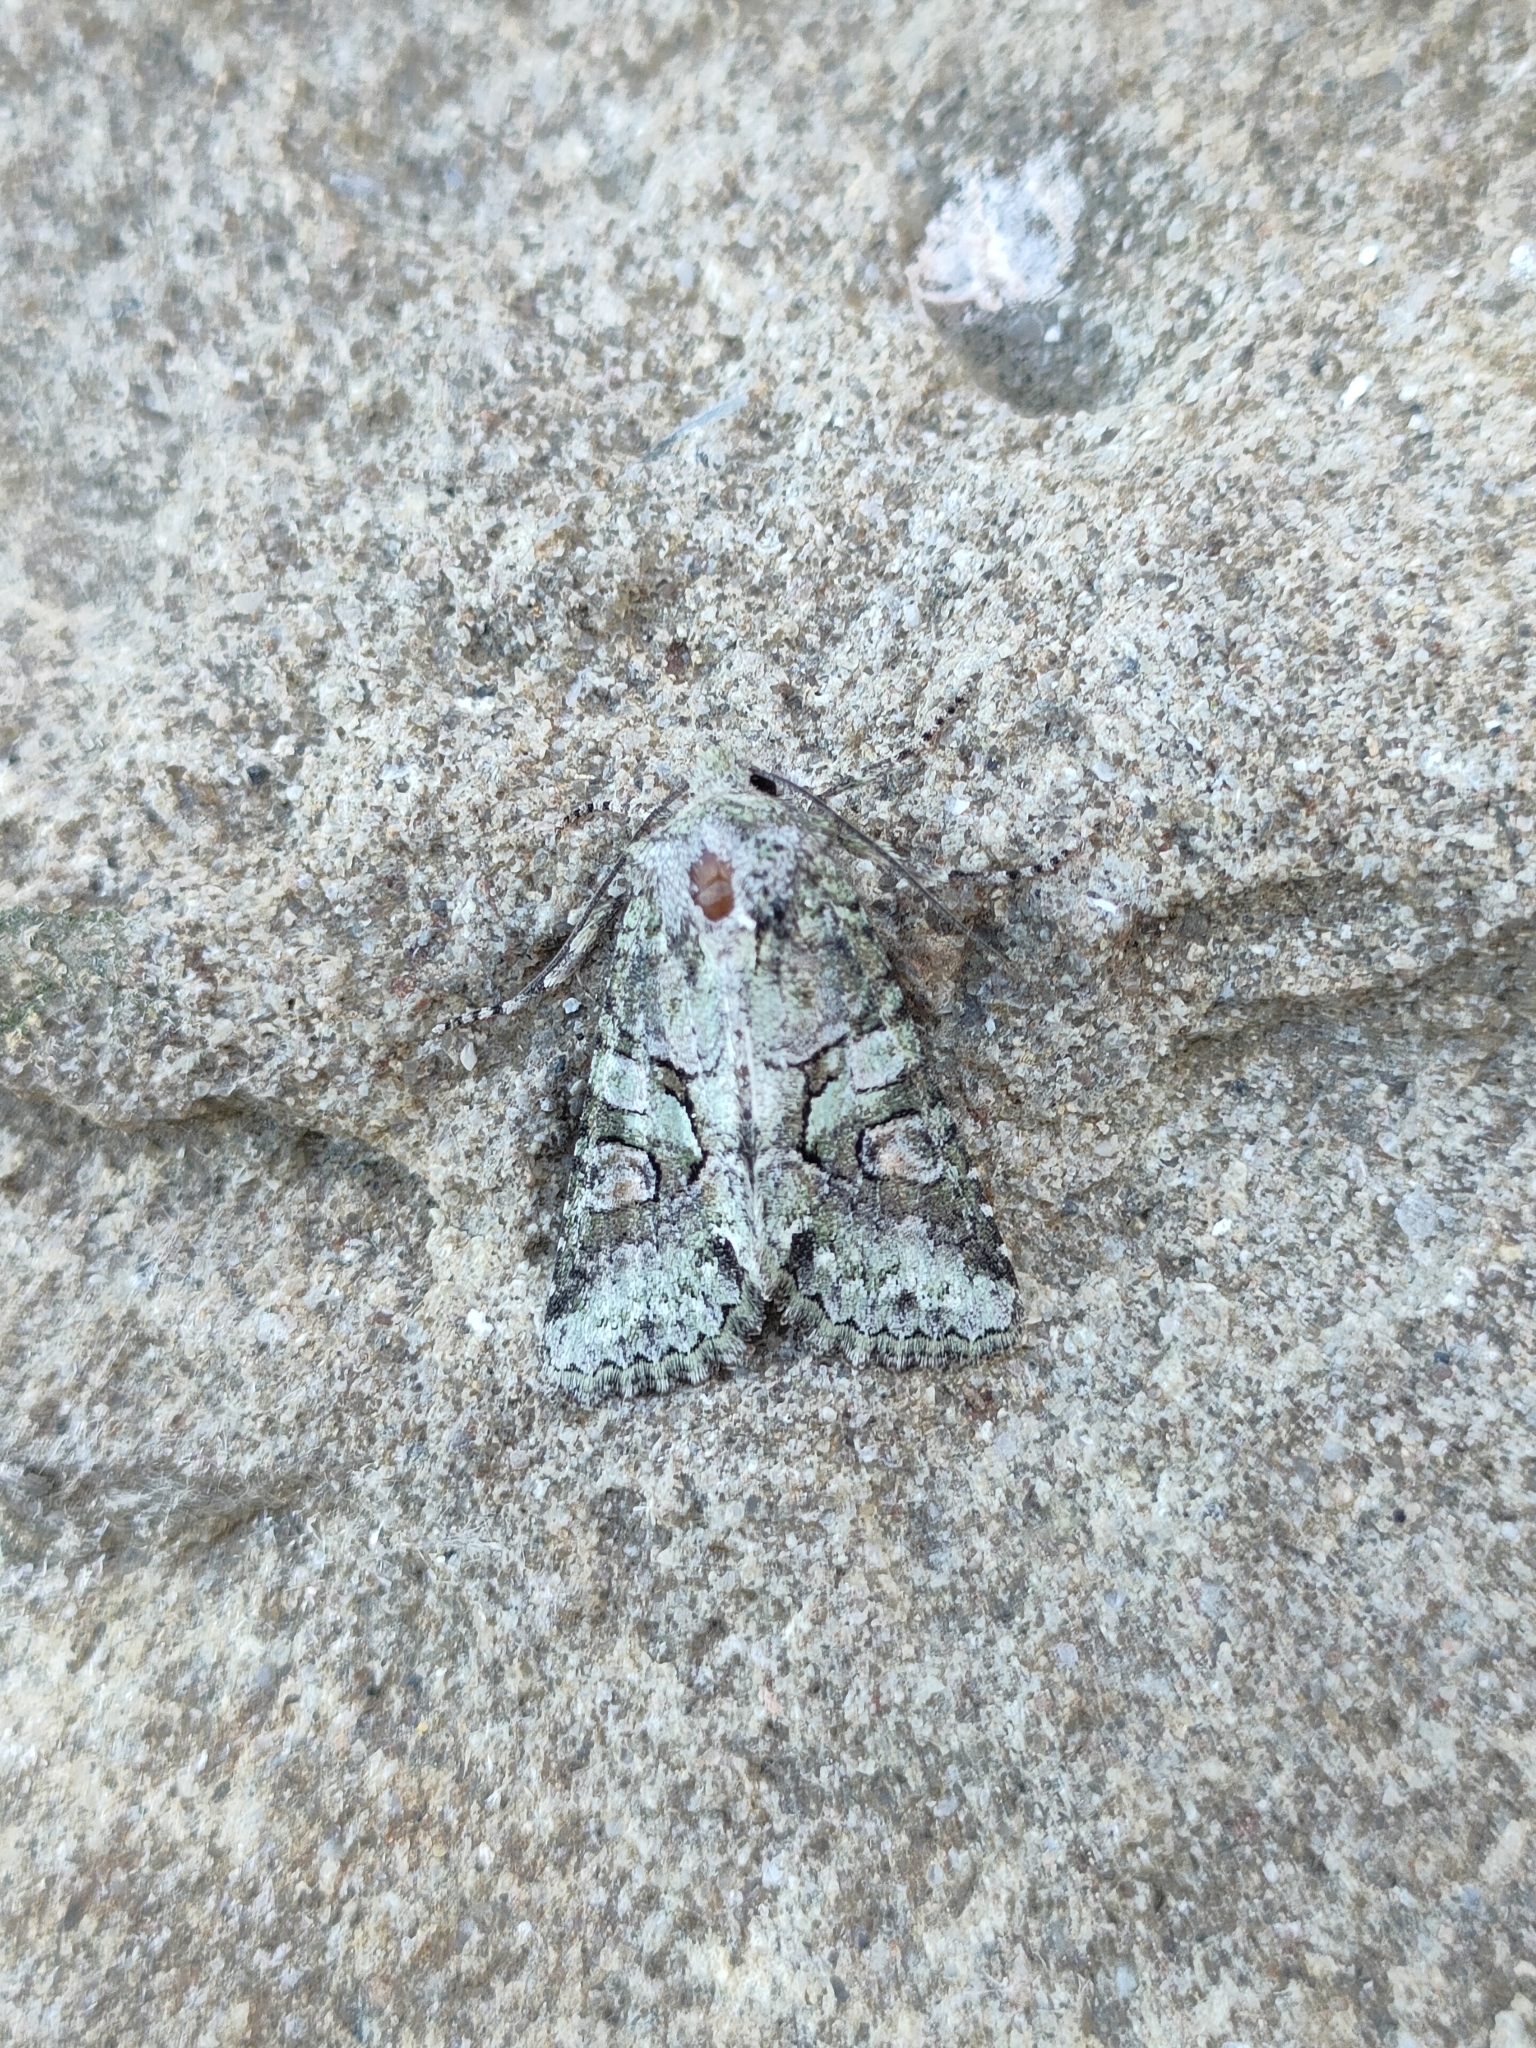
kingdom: Animalia
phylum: Arthropoda
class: Insecta
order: Lepidoptera
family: Noctuidae
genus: Dryobotodes
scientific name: Dryobotodes roboris
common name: Southern brindled green
